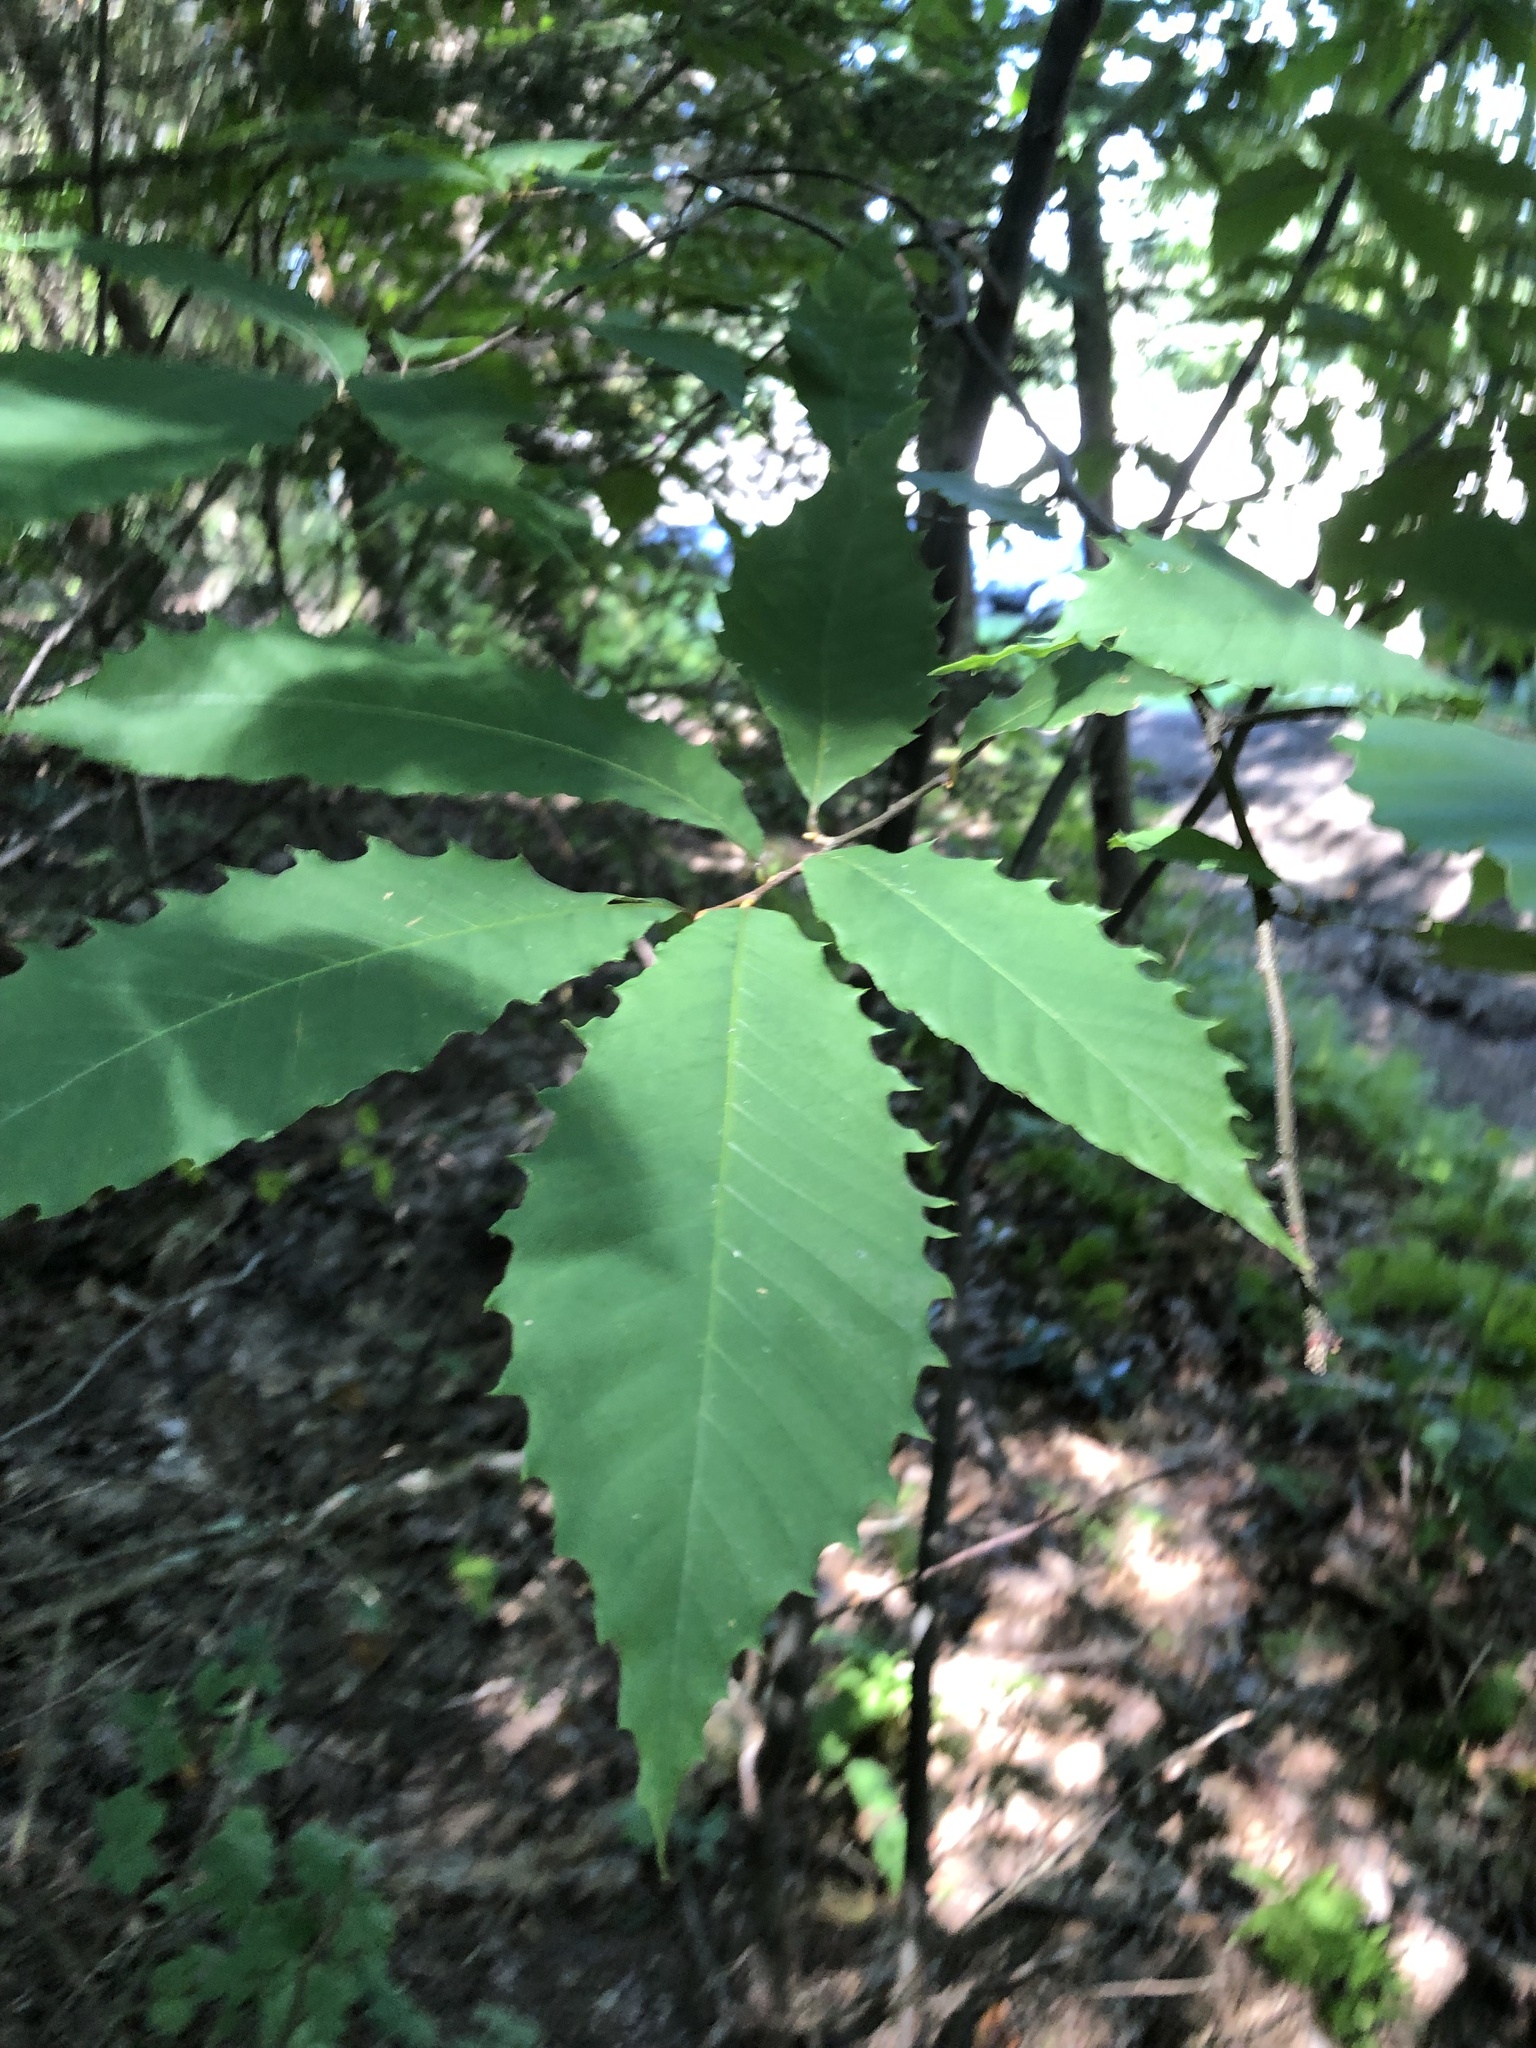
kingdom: Plantae
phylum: Tracheophyta
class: Magnoliopsida
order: Fagales
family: Fagaceae
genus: Castanea
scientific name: Castanea dentata
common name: American chestnut
